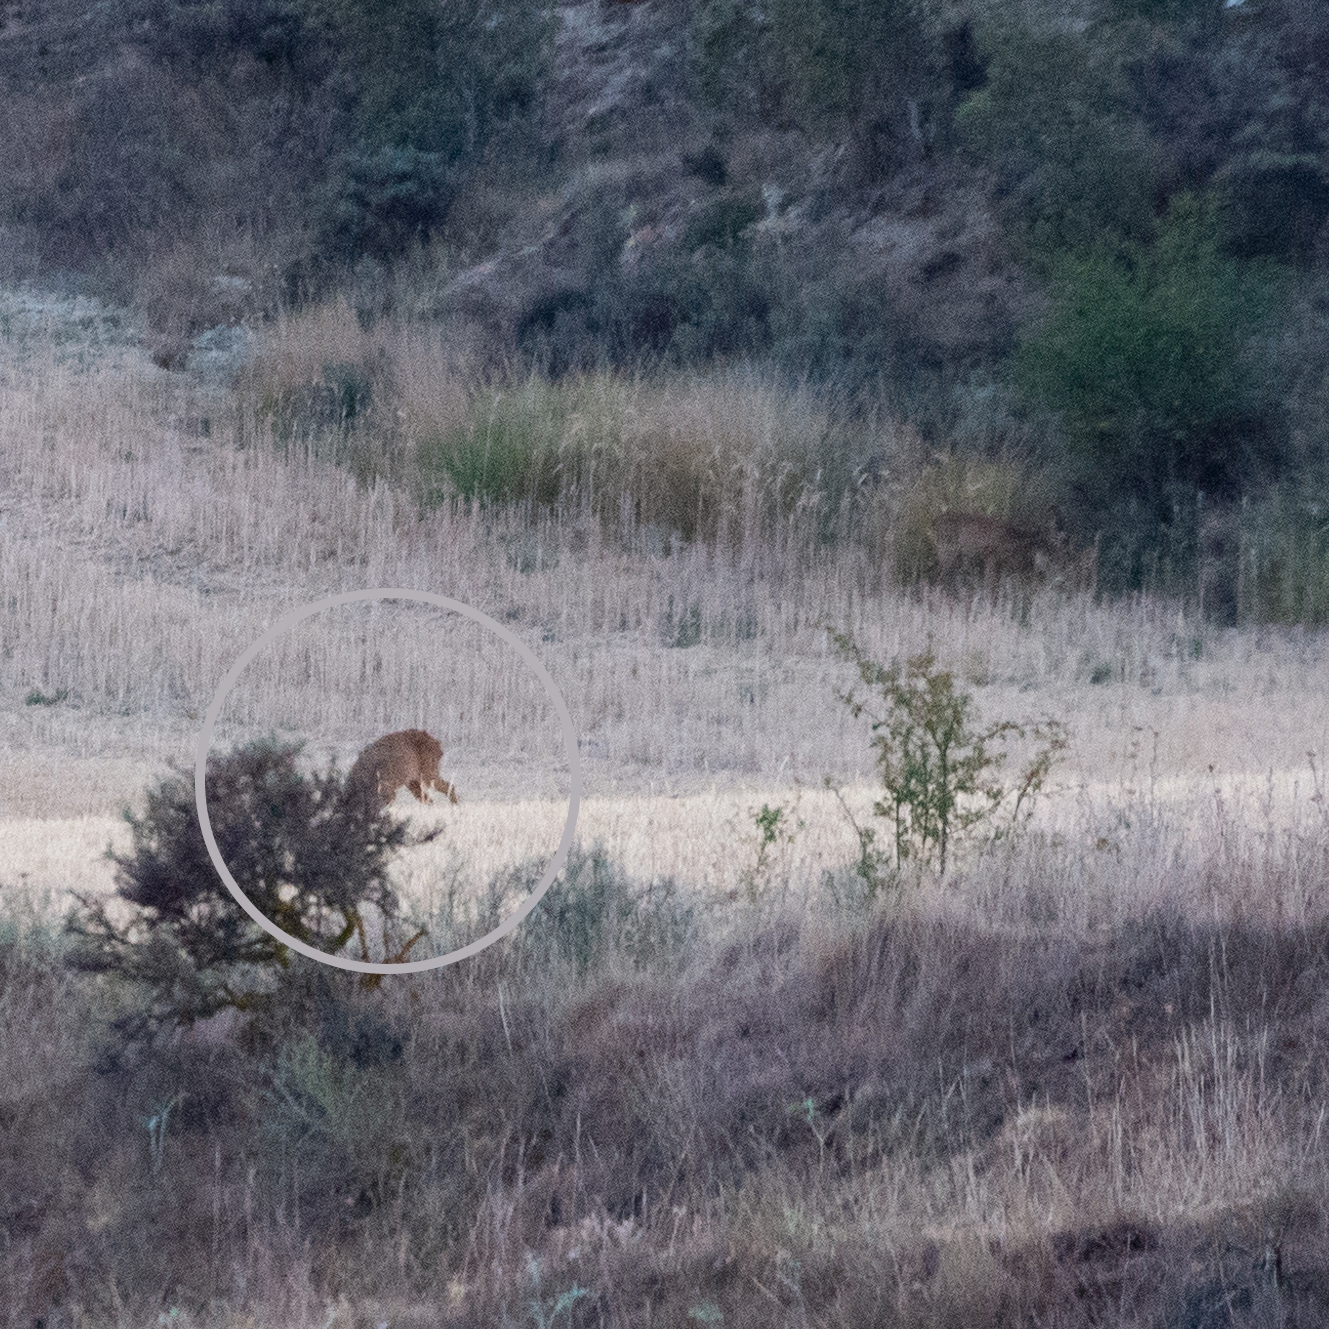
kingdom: Animalia
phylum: Chordata
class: Mammalia
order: Artiodactyla
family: Cervidae
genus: Capreolus
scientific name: Capreolus capreolus
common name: Western roe deer
